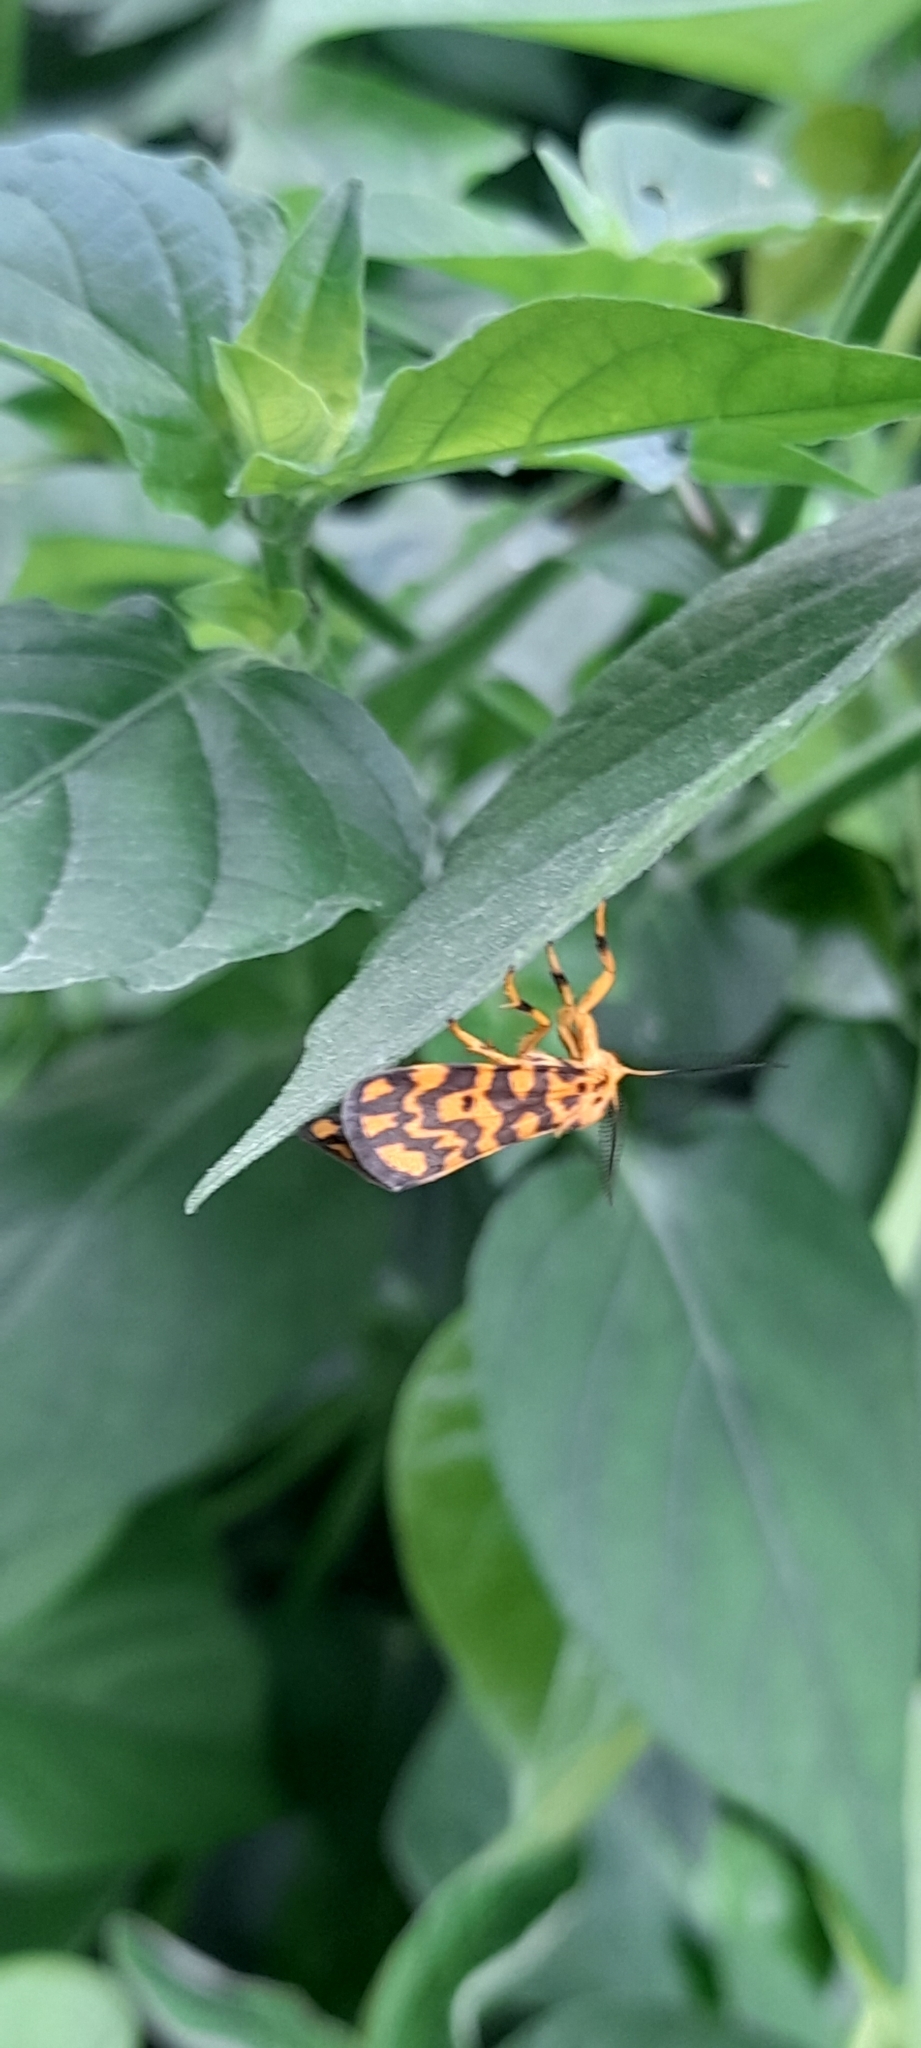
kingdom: Animalia
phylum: Arthropoda
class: Insecta
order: Lepidoptera
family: Erebidae
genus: Nepita
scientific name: Nepita conferta
